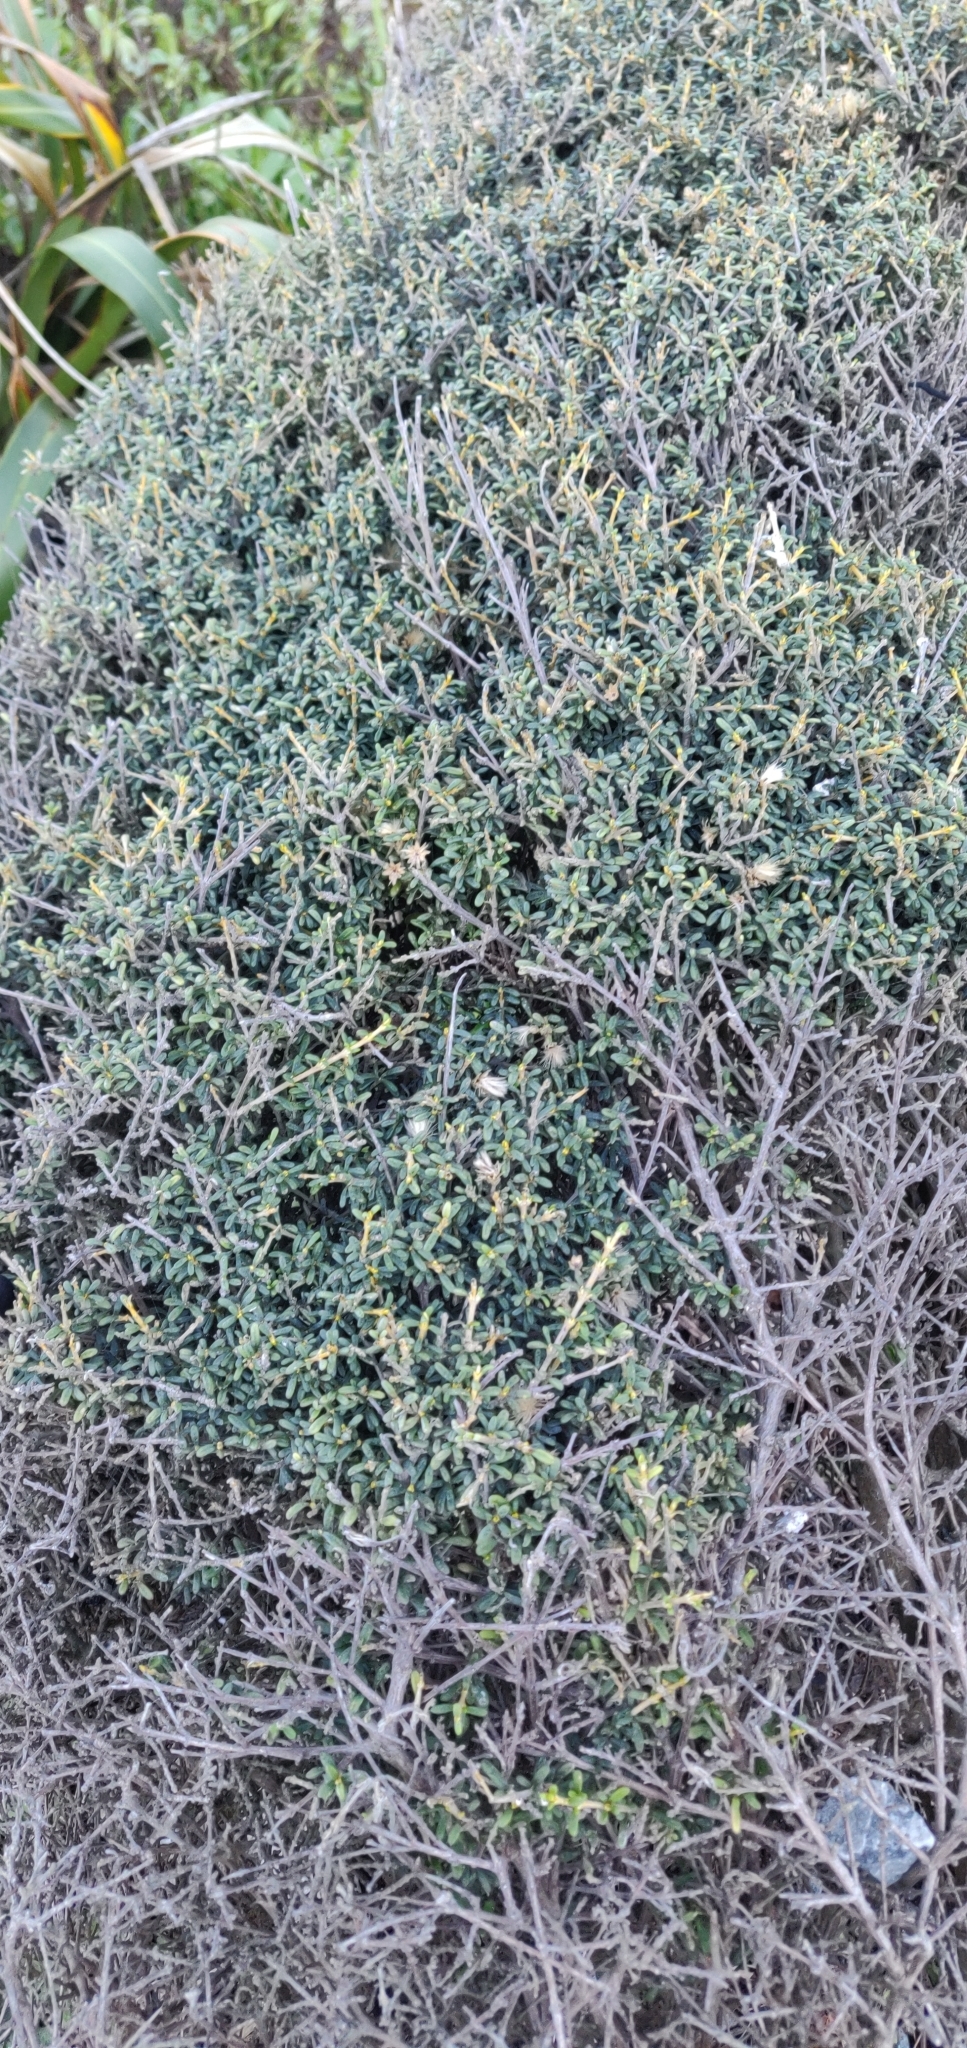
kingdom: Plantae
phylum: Tracheophyta
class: Magnoliopsida
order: Asterales
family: Asteraceae
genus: Olearia
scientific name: Olearia solandri
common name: Coastal daisybush
